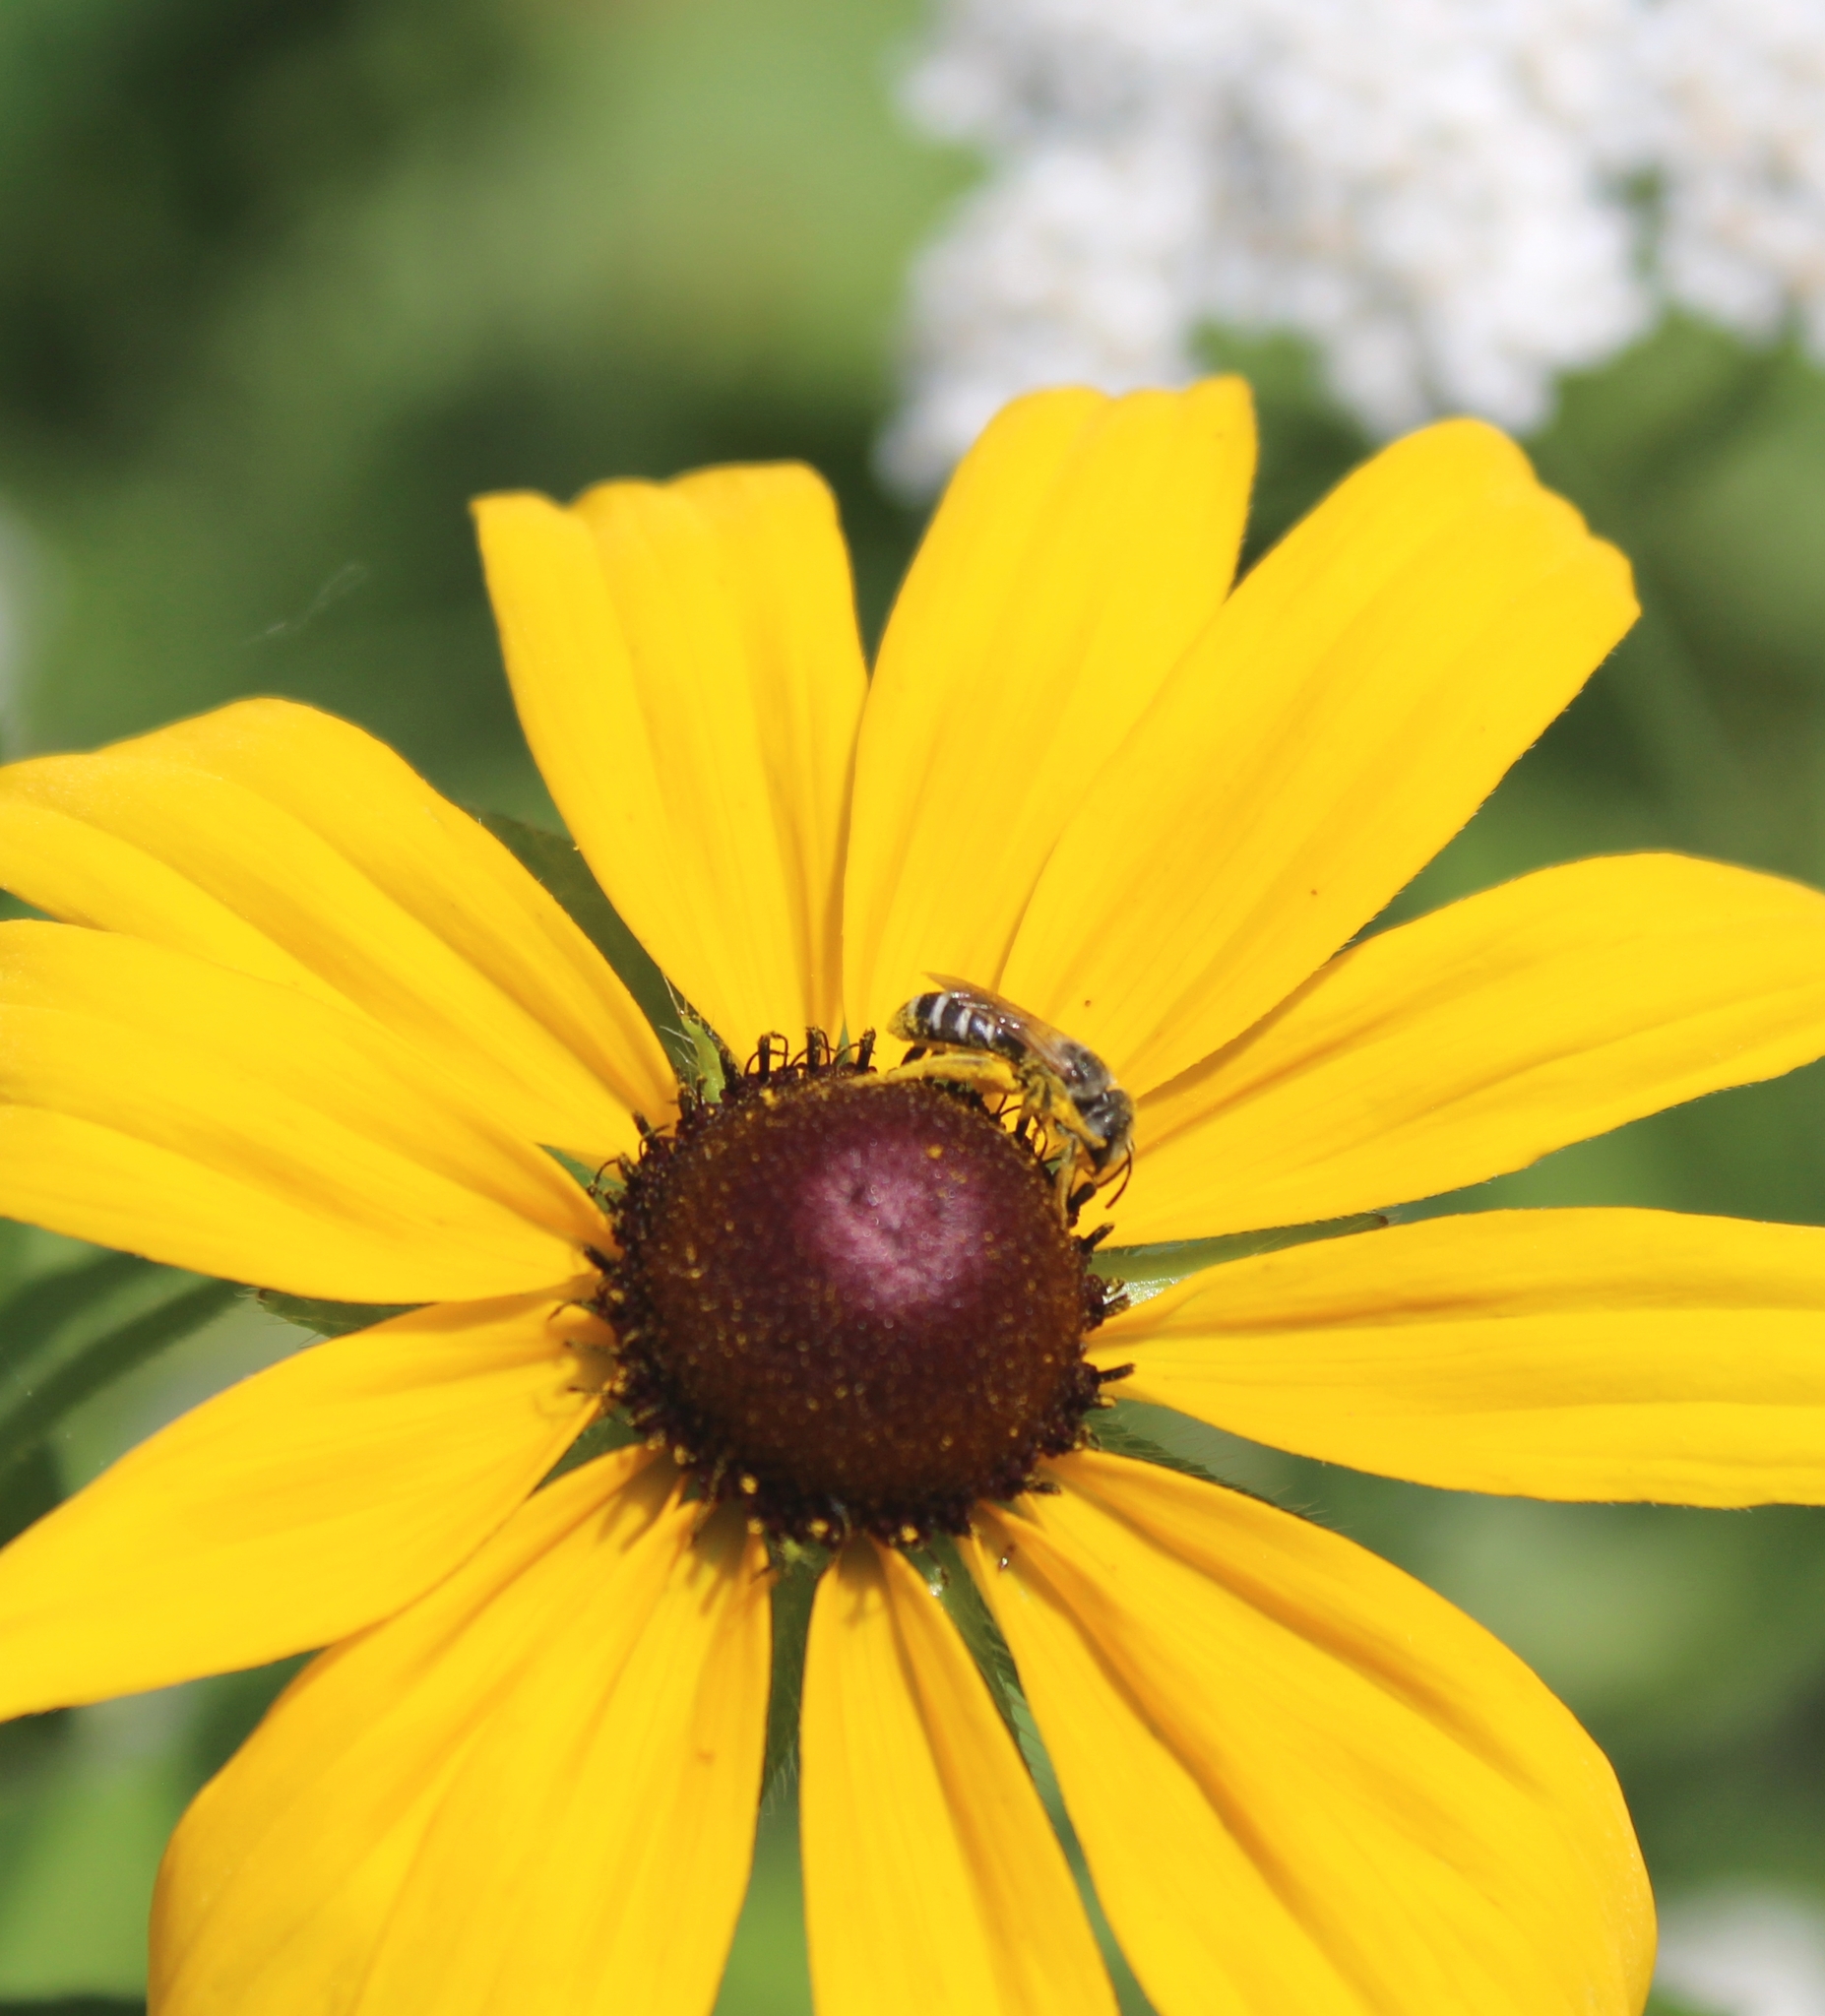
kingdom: Animalia
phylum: Arthropoda
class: Insecta
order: Hymenoptera
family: Halictidae
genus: Halictus
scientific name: Halictus ligatus
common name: Ligated furrow bee
